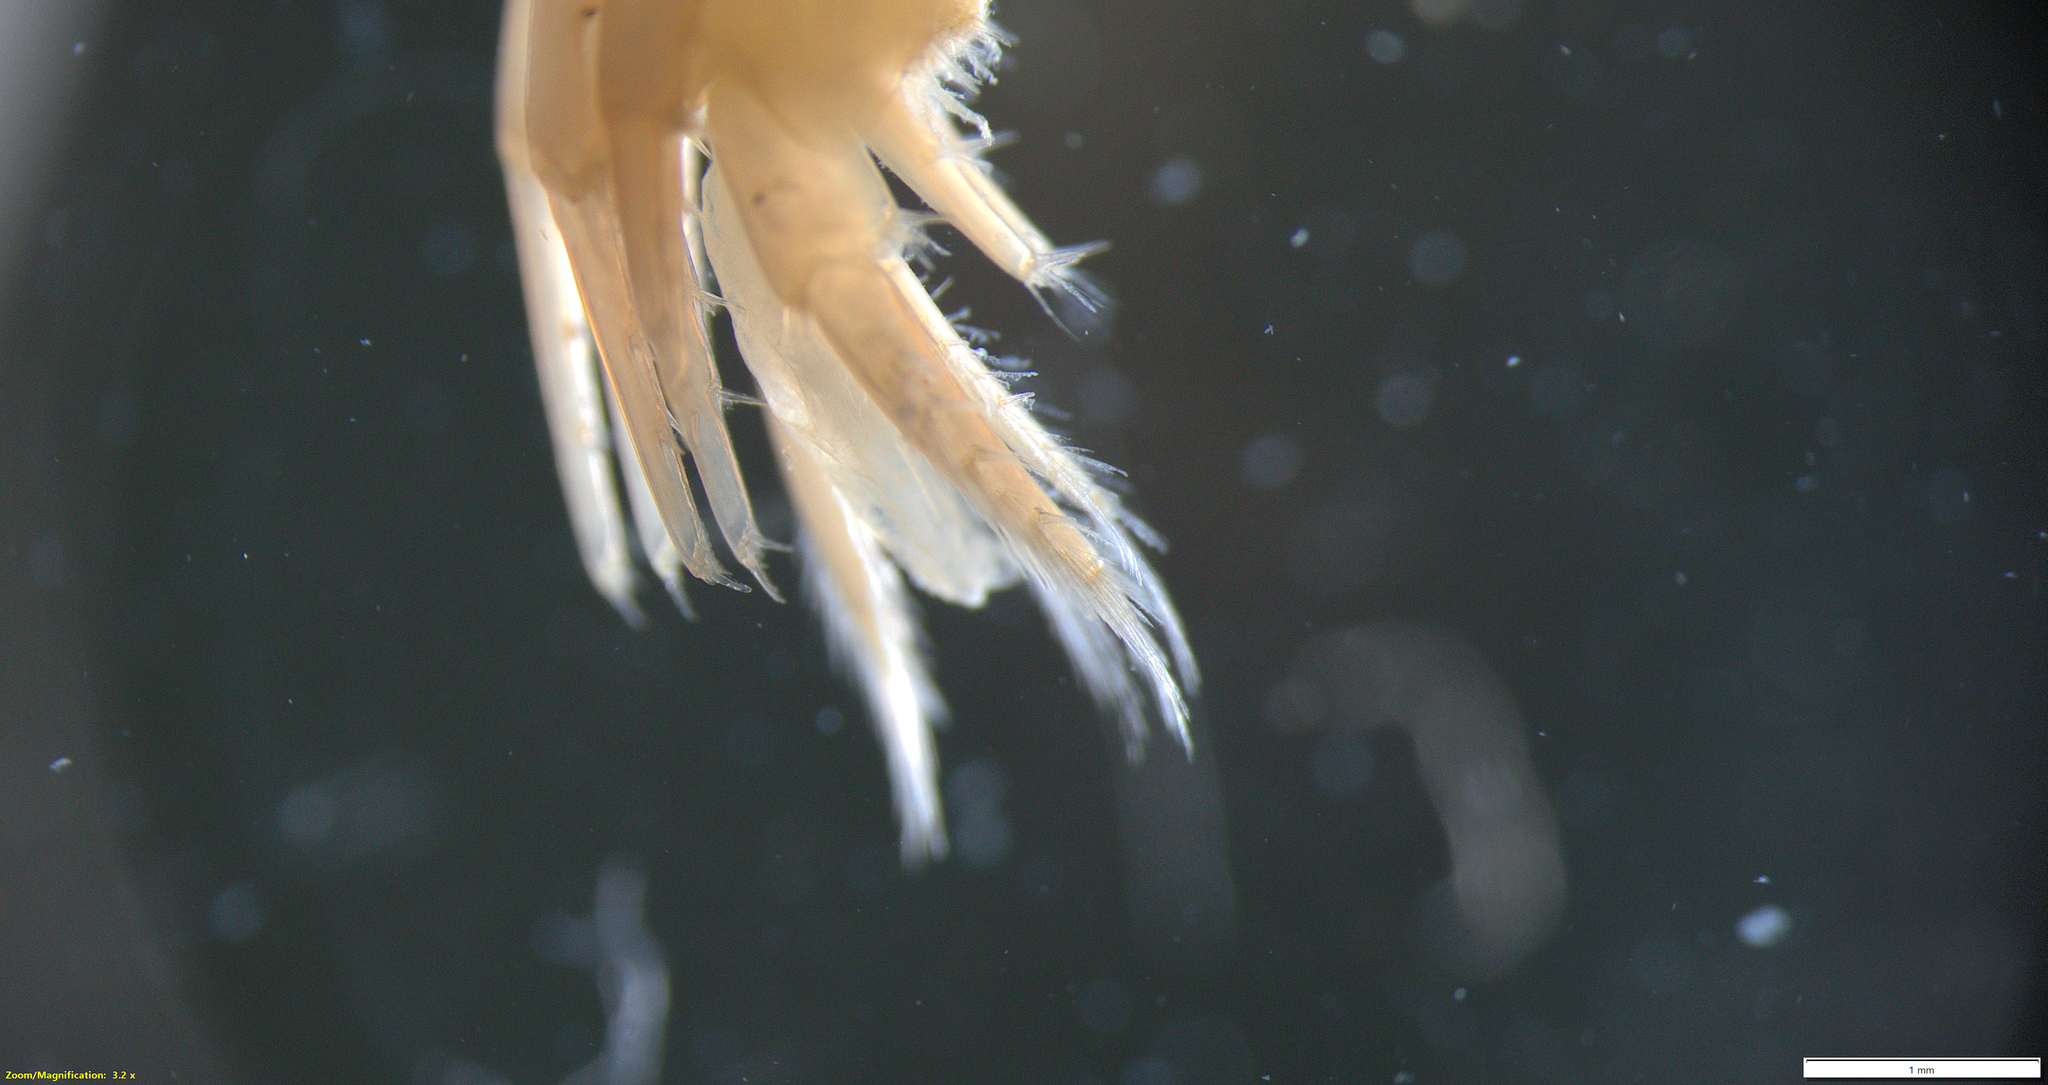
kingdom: Animalia
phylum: Arthropoda
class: Malacostraca
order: Amphipoda
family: Gammaridae
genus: Gammarus
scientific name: Gammarus oceanicus
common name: Oceanic scud
